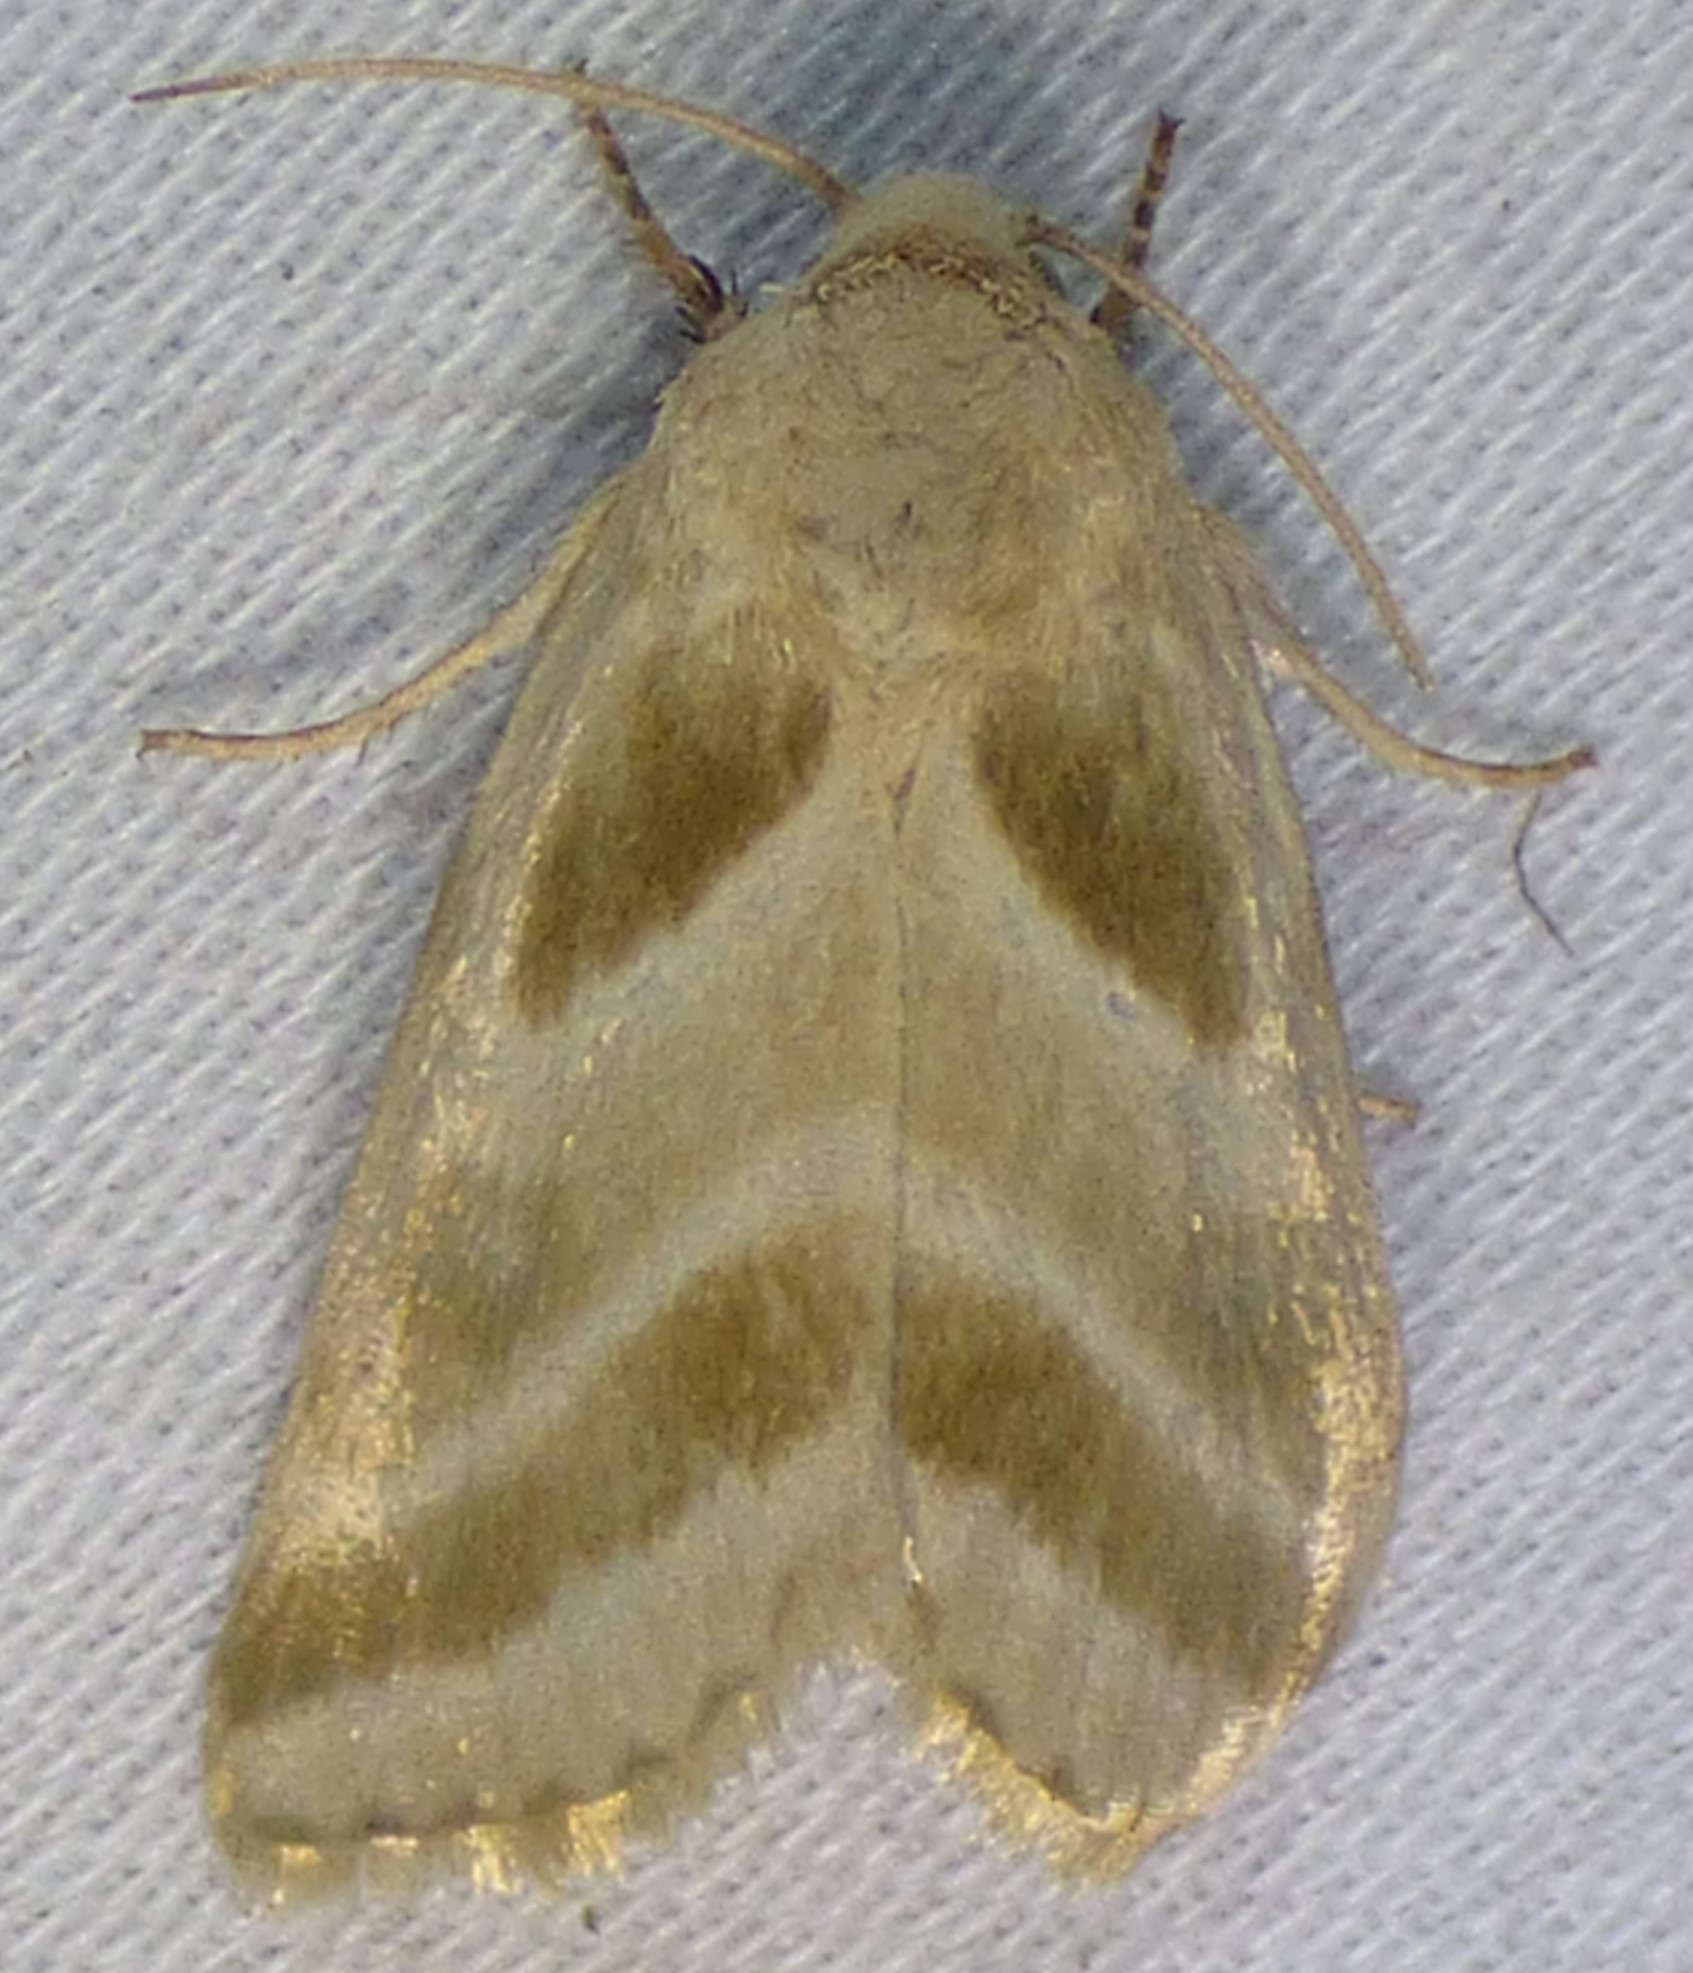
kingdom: Animalia
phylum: Arthropoda
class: Insecta
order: Lepidoptera
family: Noctuidae
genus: Schinia
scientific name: Schinia trifascia
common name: Three-lined flower moth
